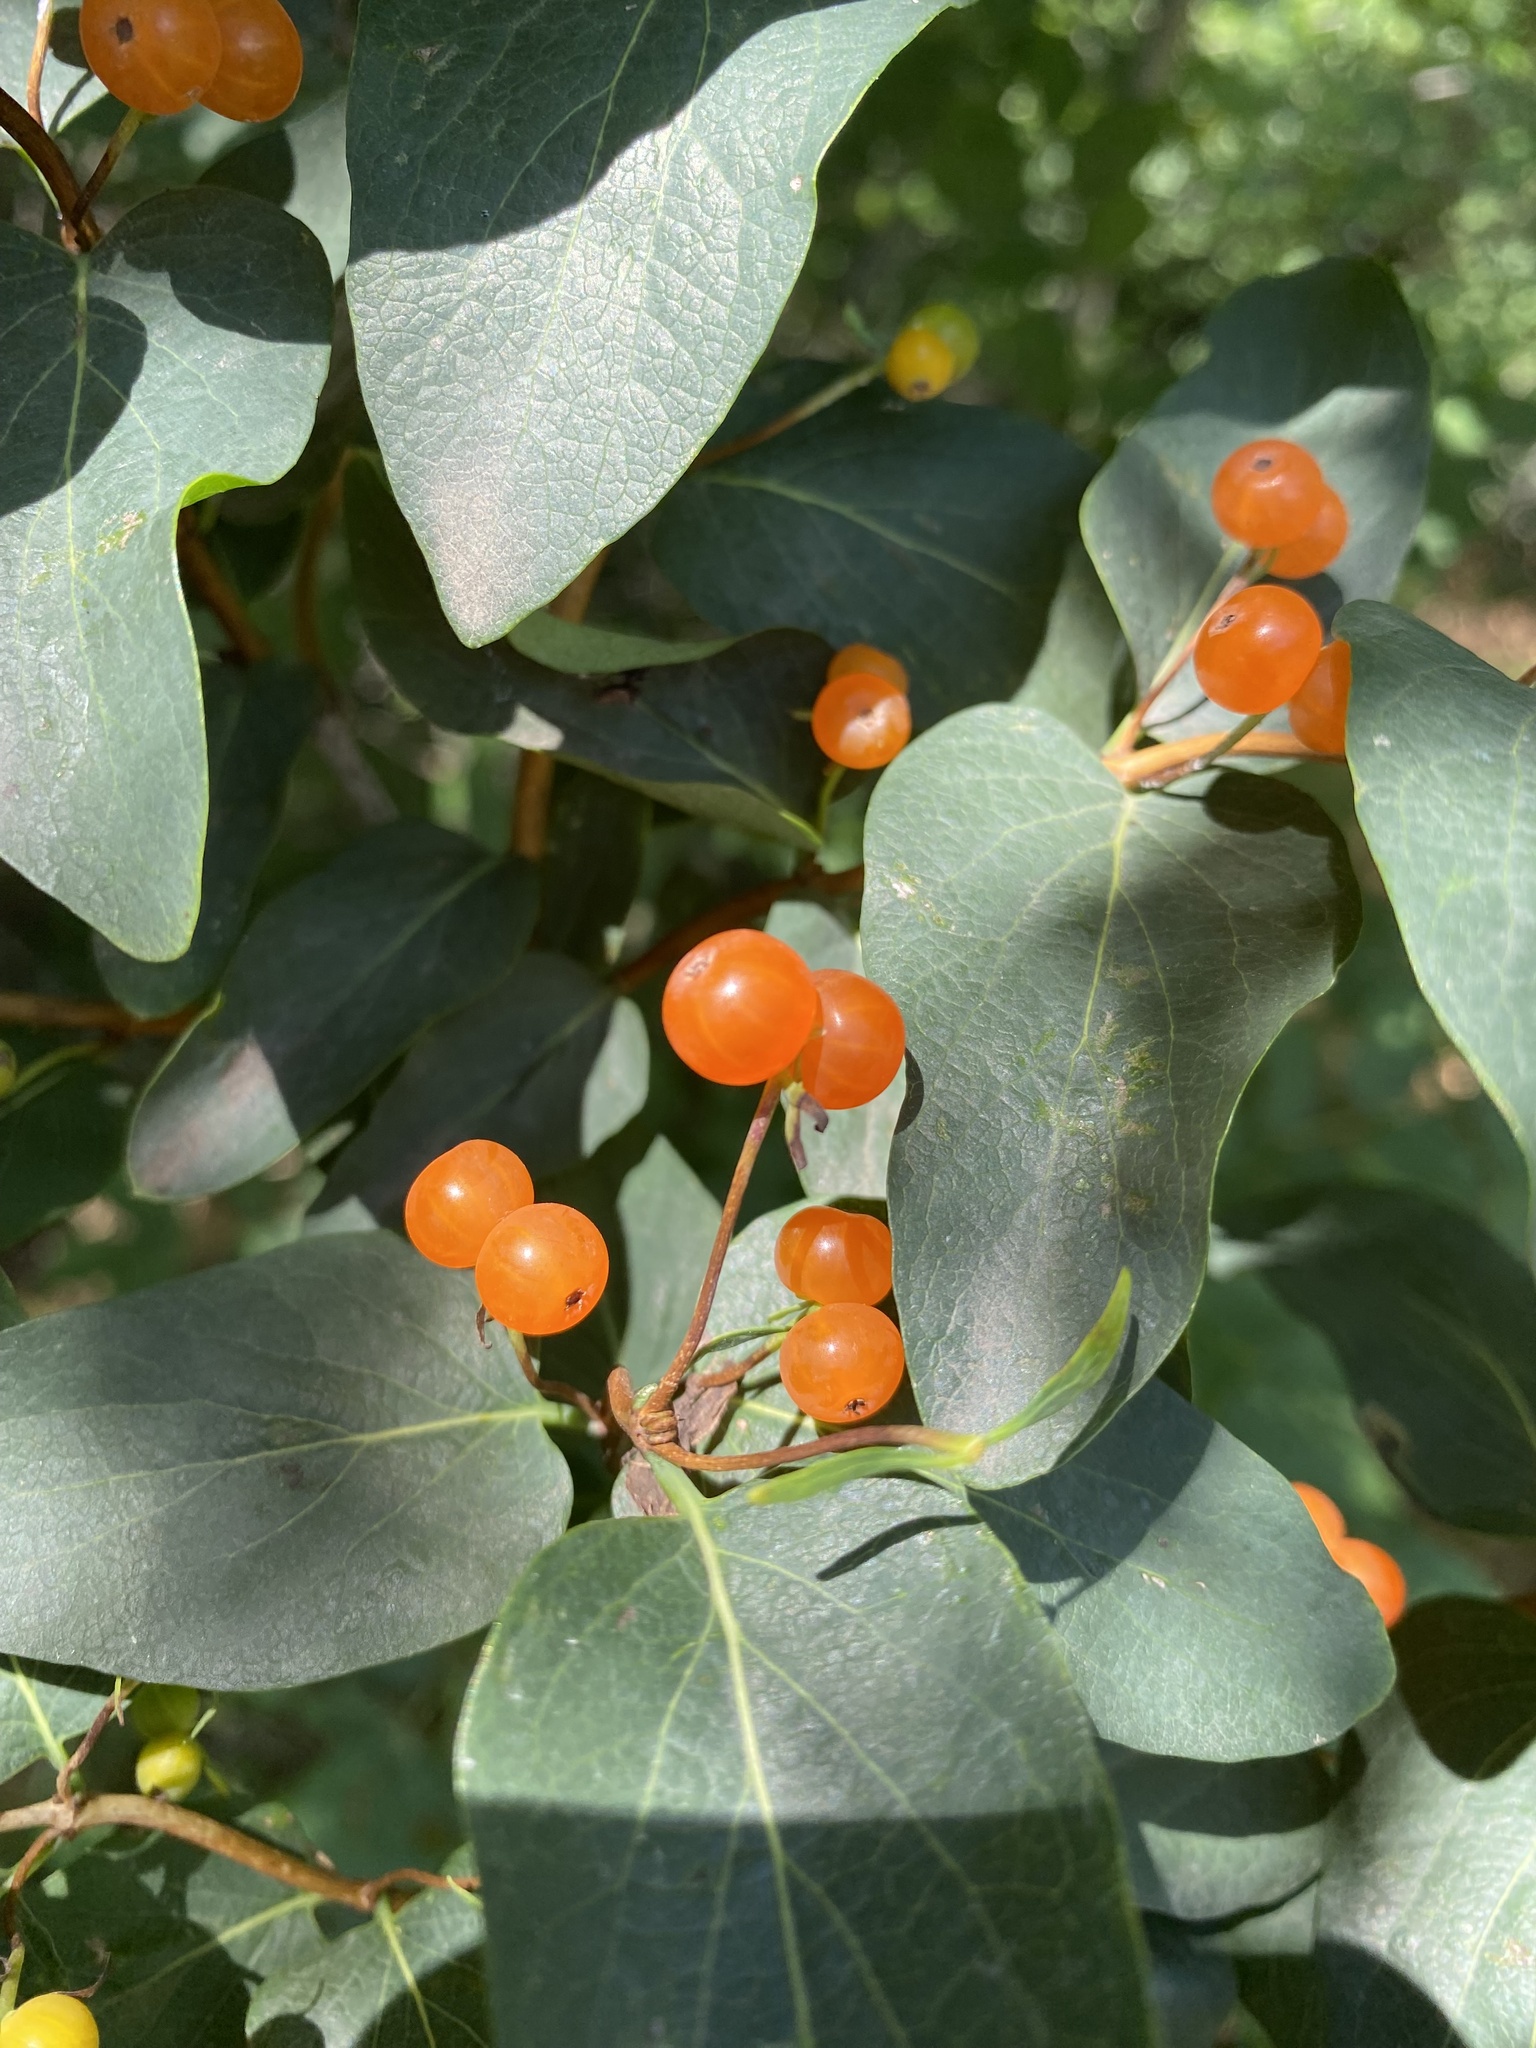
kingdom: Plantae
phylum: Tracheophyta
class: Magnoliopsida
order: Dipsacales
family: Caprifoliaceae
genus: Lonicera
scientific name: Lonicera tatarica
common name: Tatarian honeysuckle
